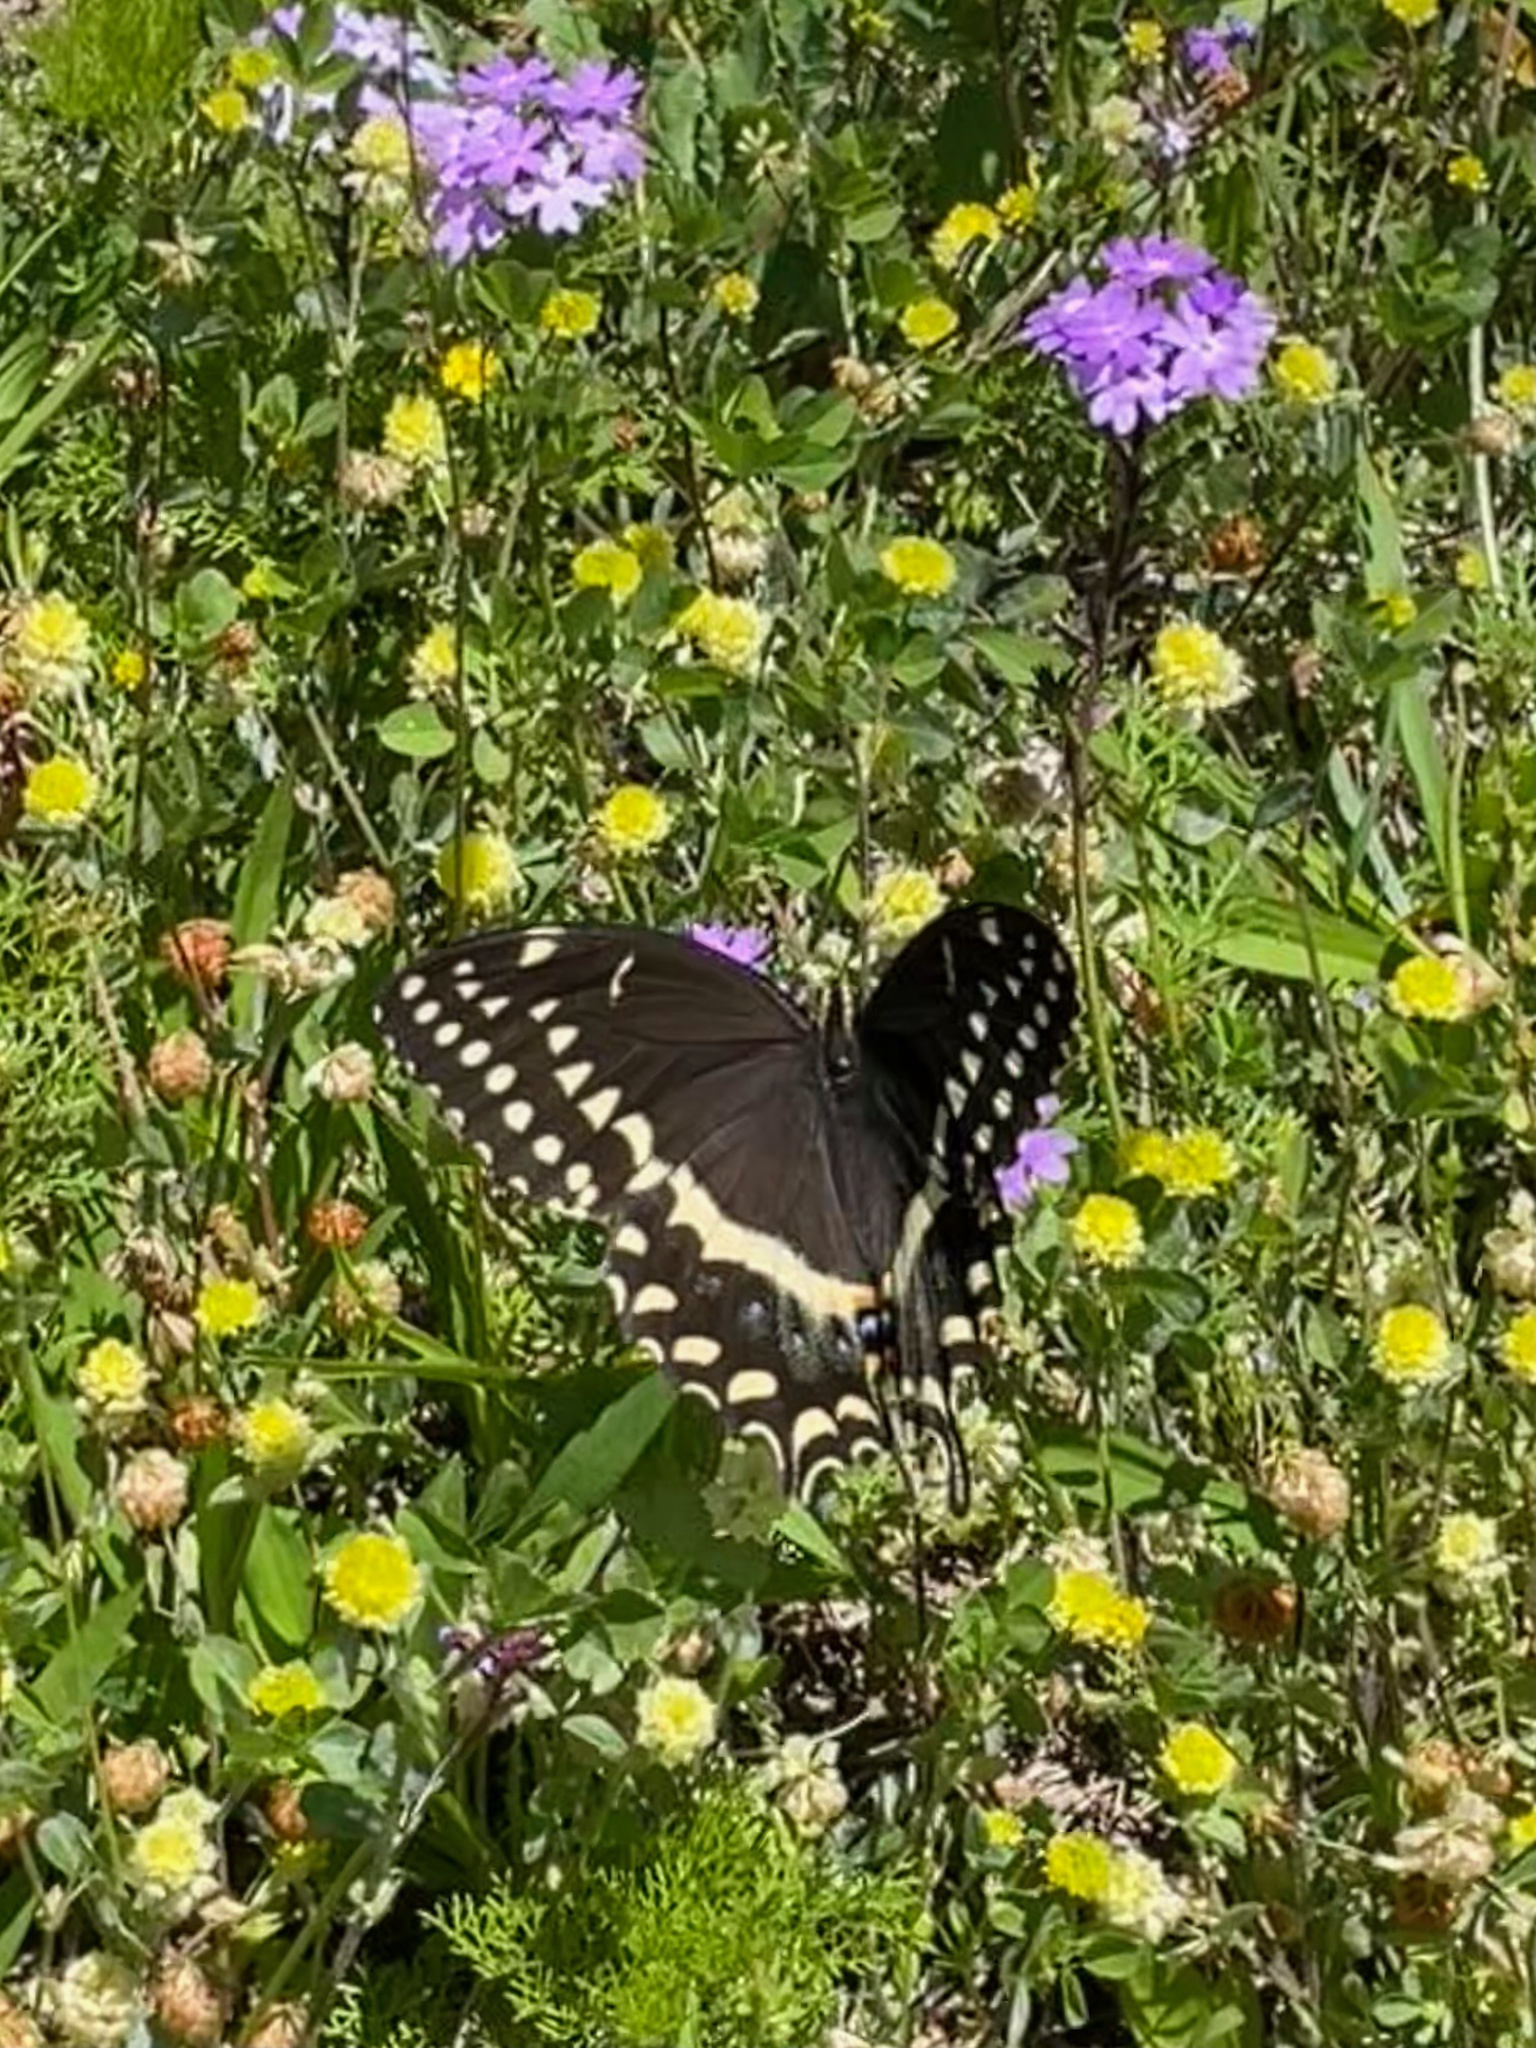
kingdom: Animalia
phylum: Arthropoda
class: Insecta
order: Lepidoptera
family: Papilionidae
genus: Papilio
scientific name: Papilio palamedes
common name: Palamedes swallowtail
